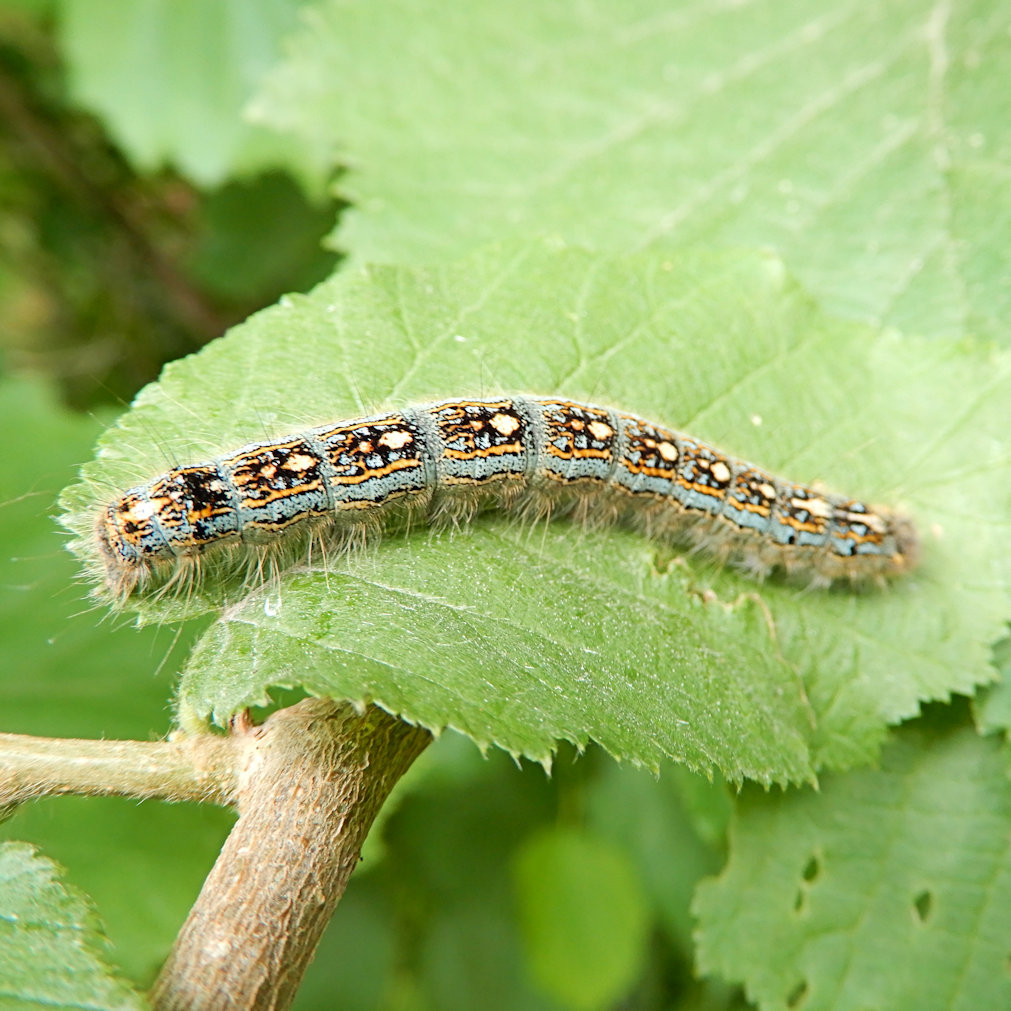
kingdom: Animalia
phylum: Arthropoda
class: Insecta
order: Lepidoptera
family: Lasiocampidae
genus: Malacosoma
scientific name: Malacosoma disstria
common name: Forest tent caterpillar
